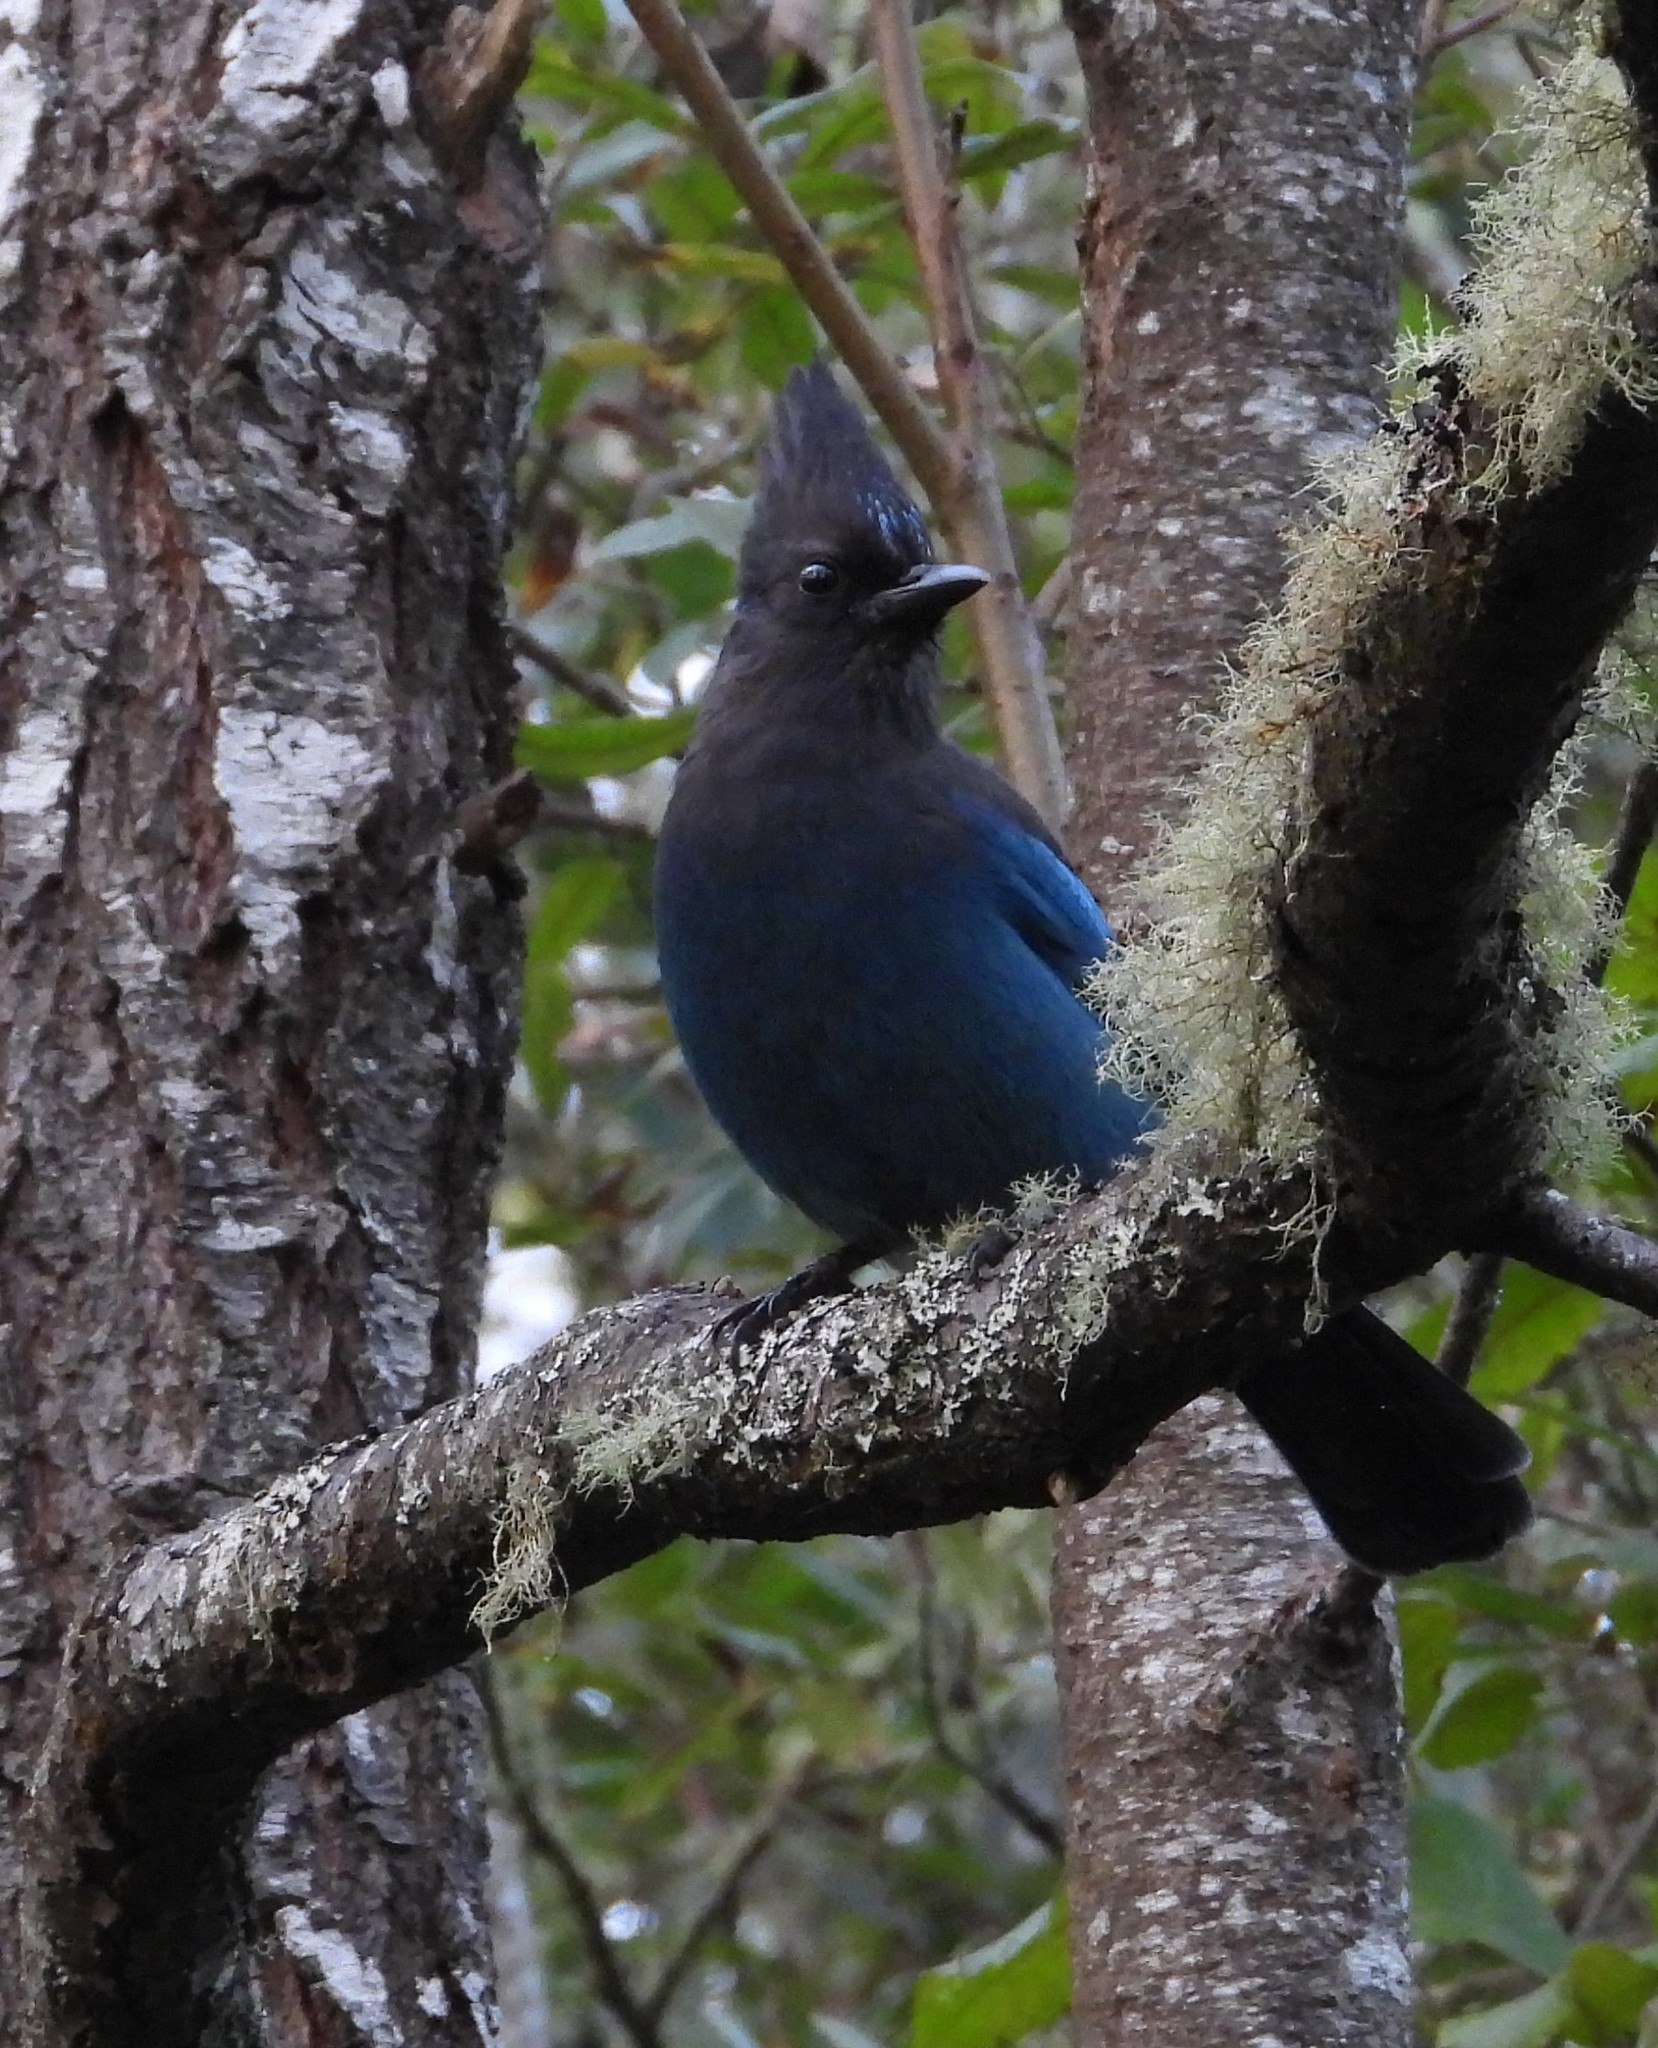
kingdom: Animalia
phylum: Chordata
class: Aves
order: Passeriformes
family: Corvidae
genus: Cyanocitta
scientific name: Cyanocitta stelleri
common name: Steller's jay
